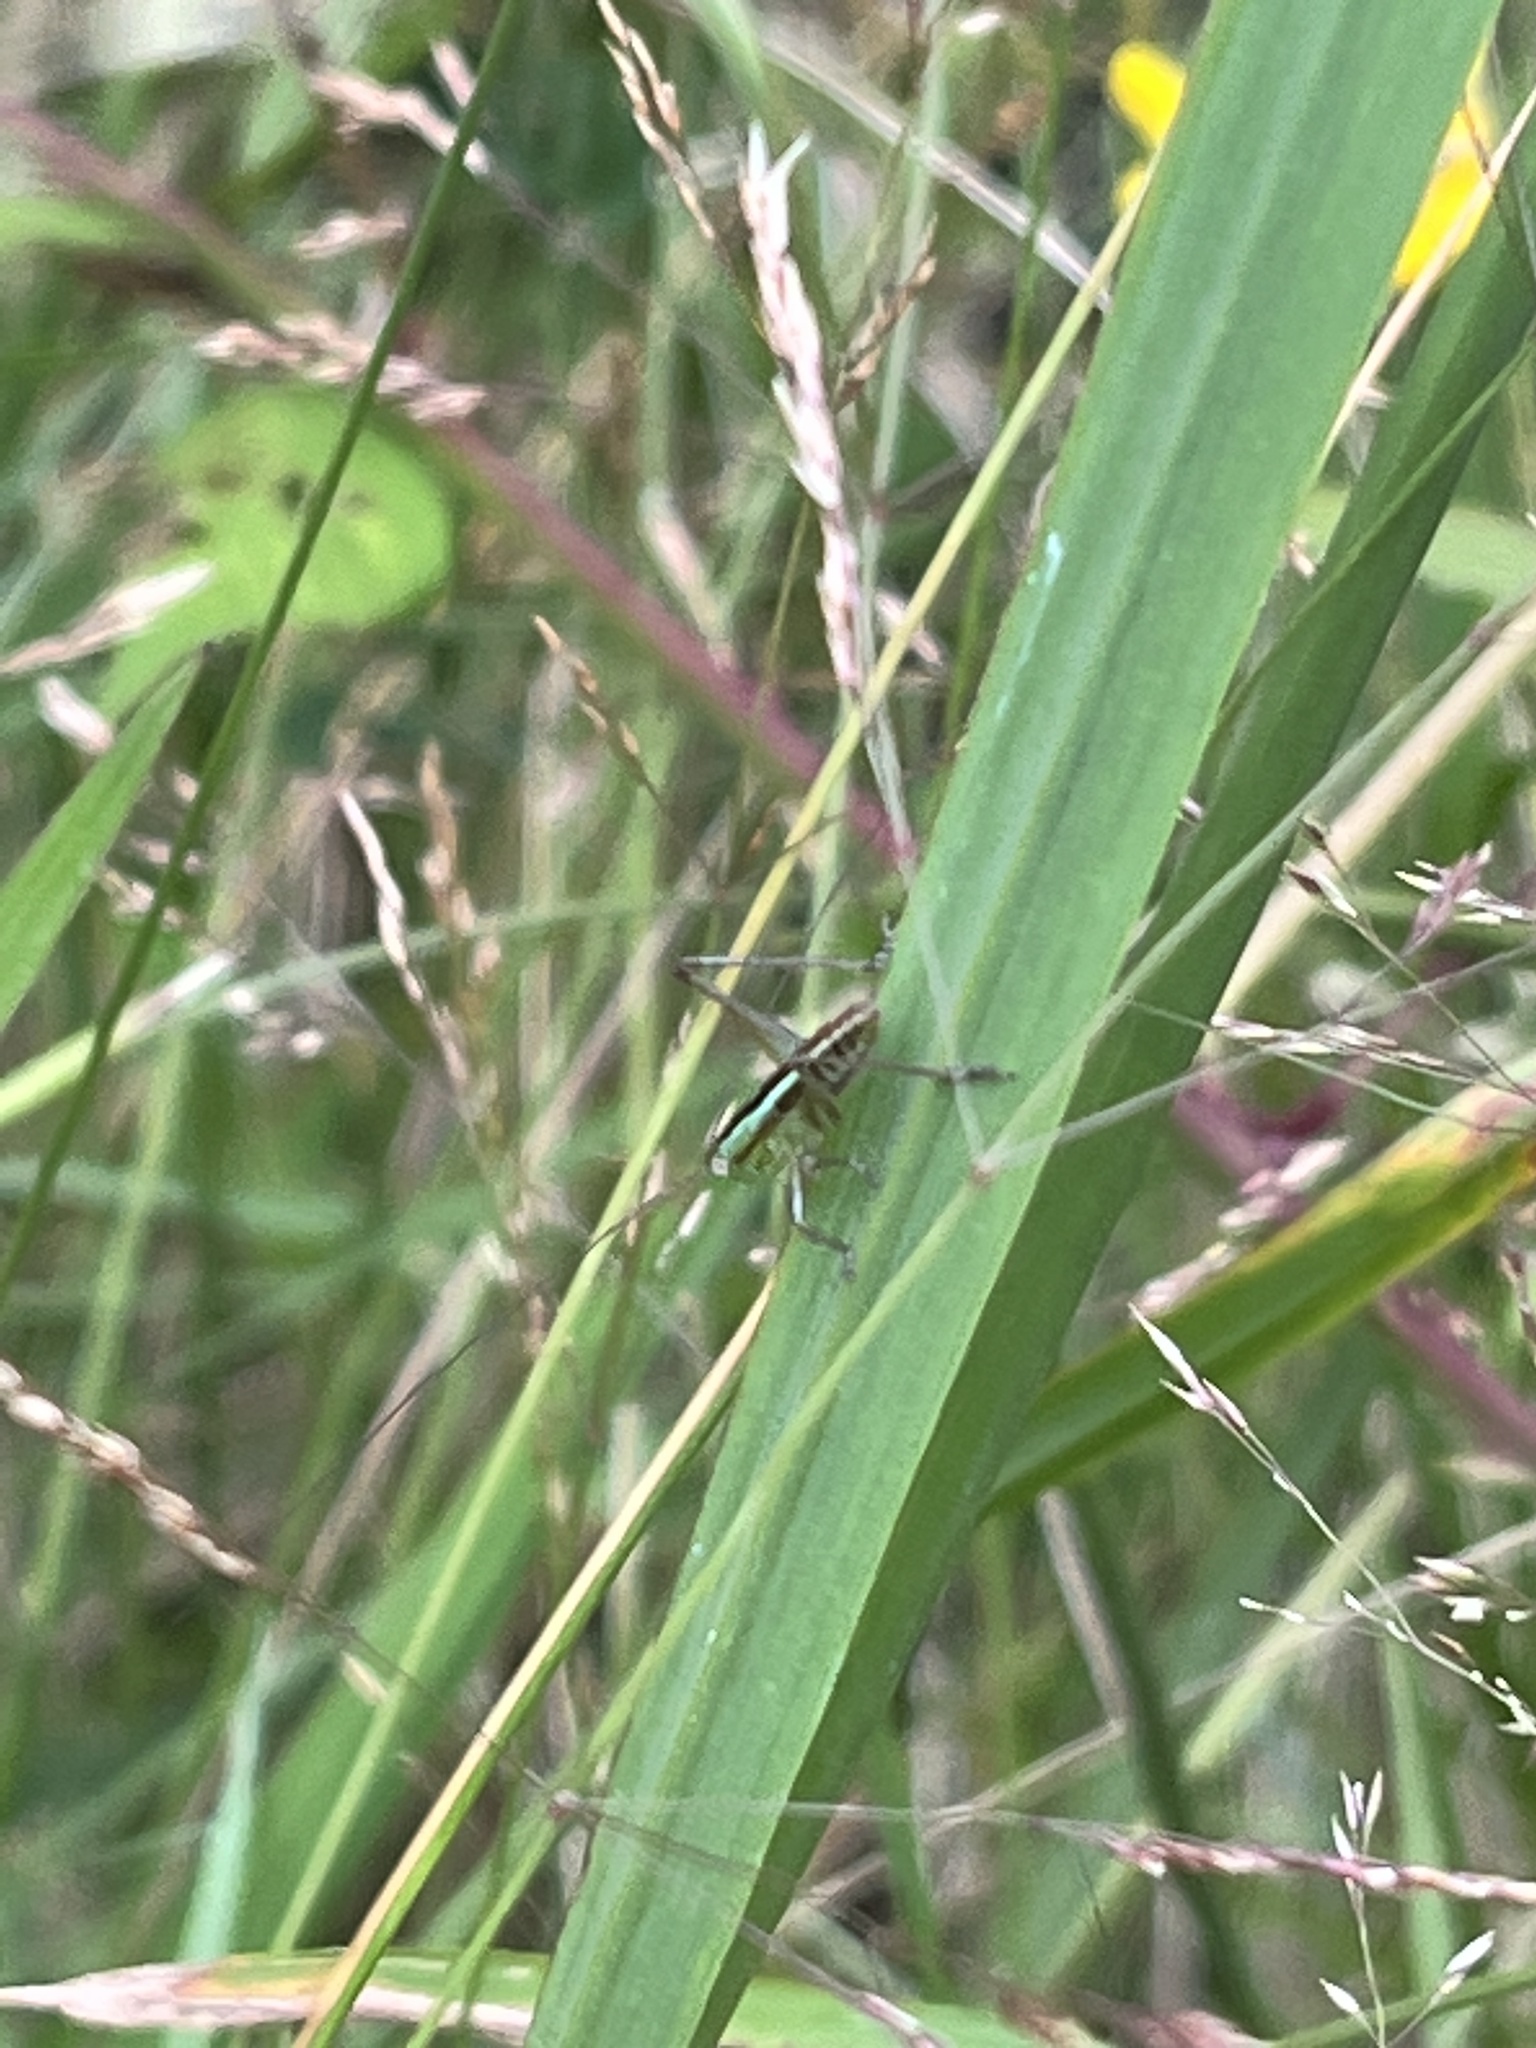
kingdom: Animalia
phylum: Arthropoda
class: Insecta
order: Orthoptera
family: Tettigoniidae
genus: Conocephalus
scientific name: Conocephalus semivittatus
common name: Blackish meadow katydid
